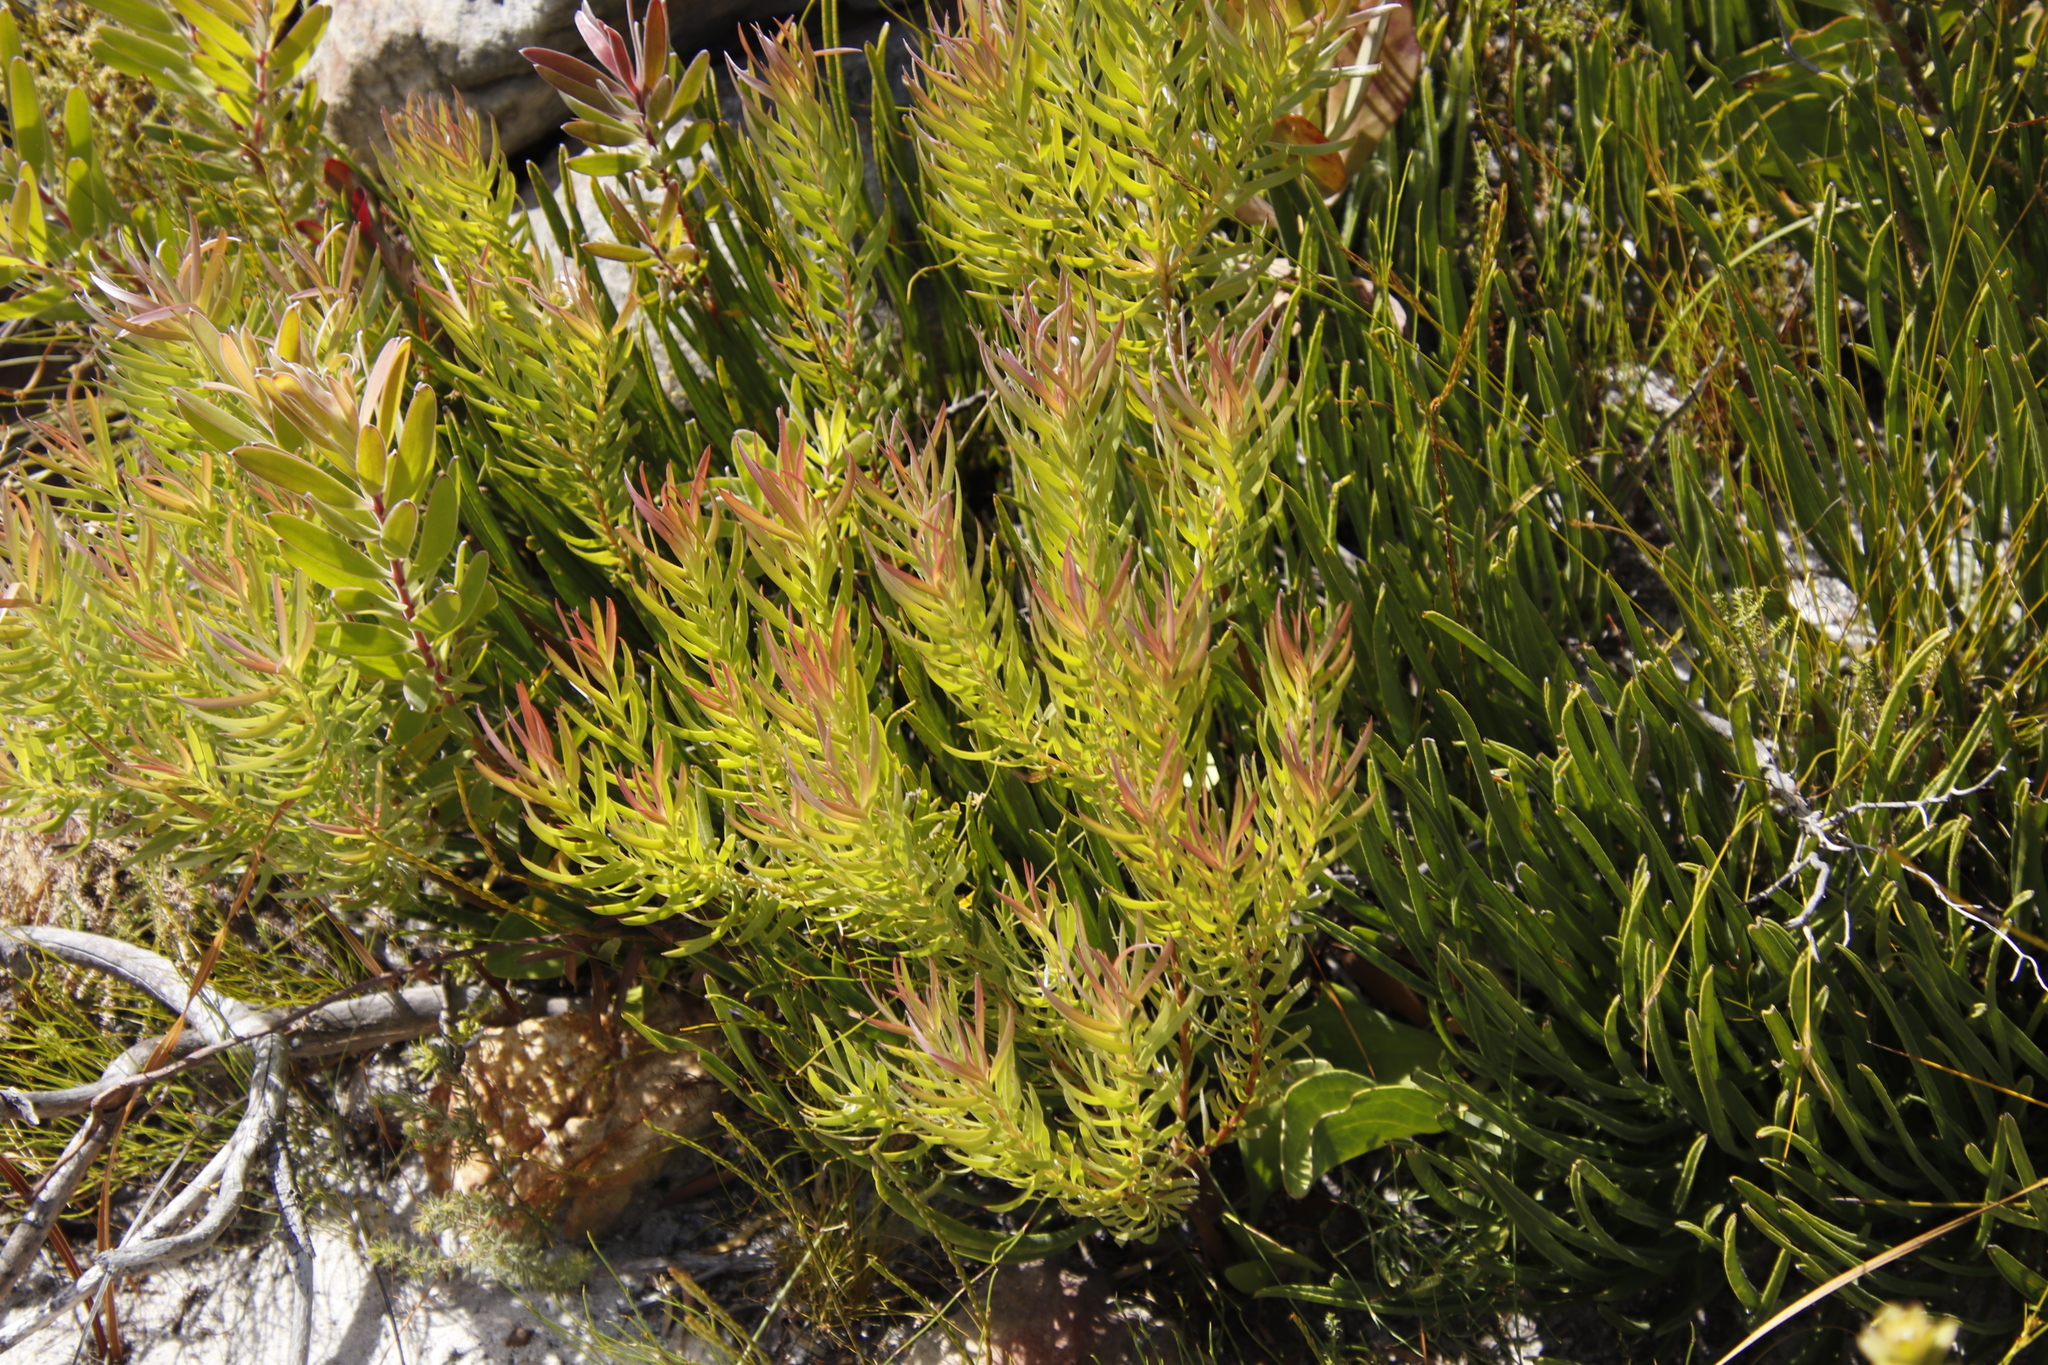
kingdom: Plantae
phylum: Tracheophyta
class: Magnoliopsida
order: Proteales
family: Proteaceae
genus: Leucadendron
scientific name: Leucadendron xanthoconus
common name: Sickle-leaf conebush
